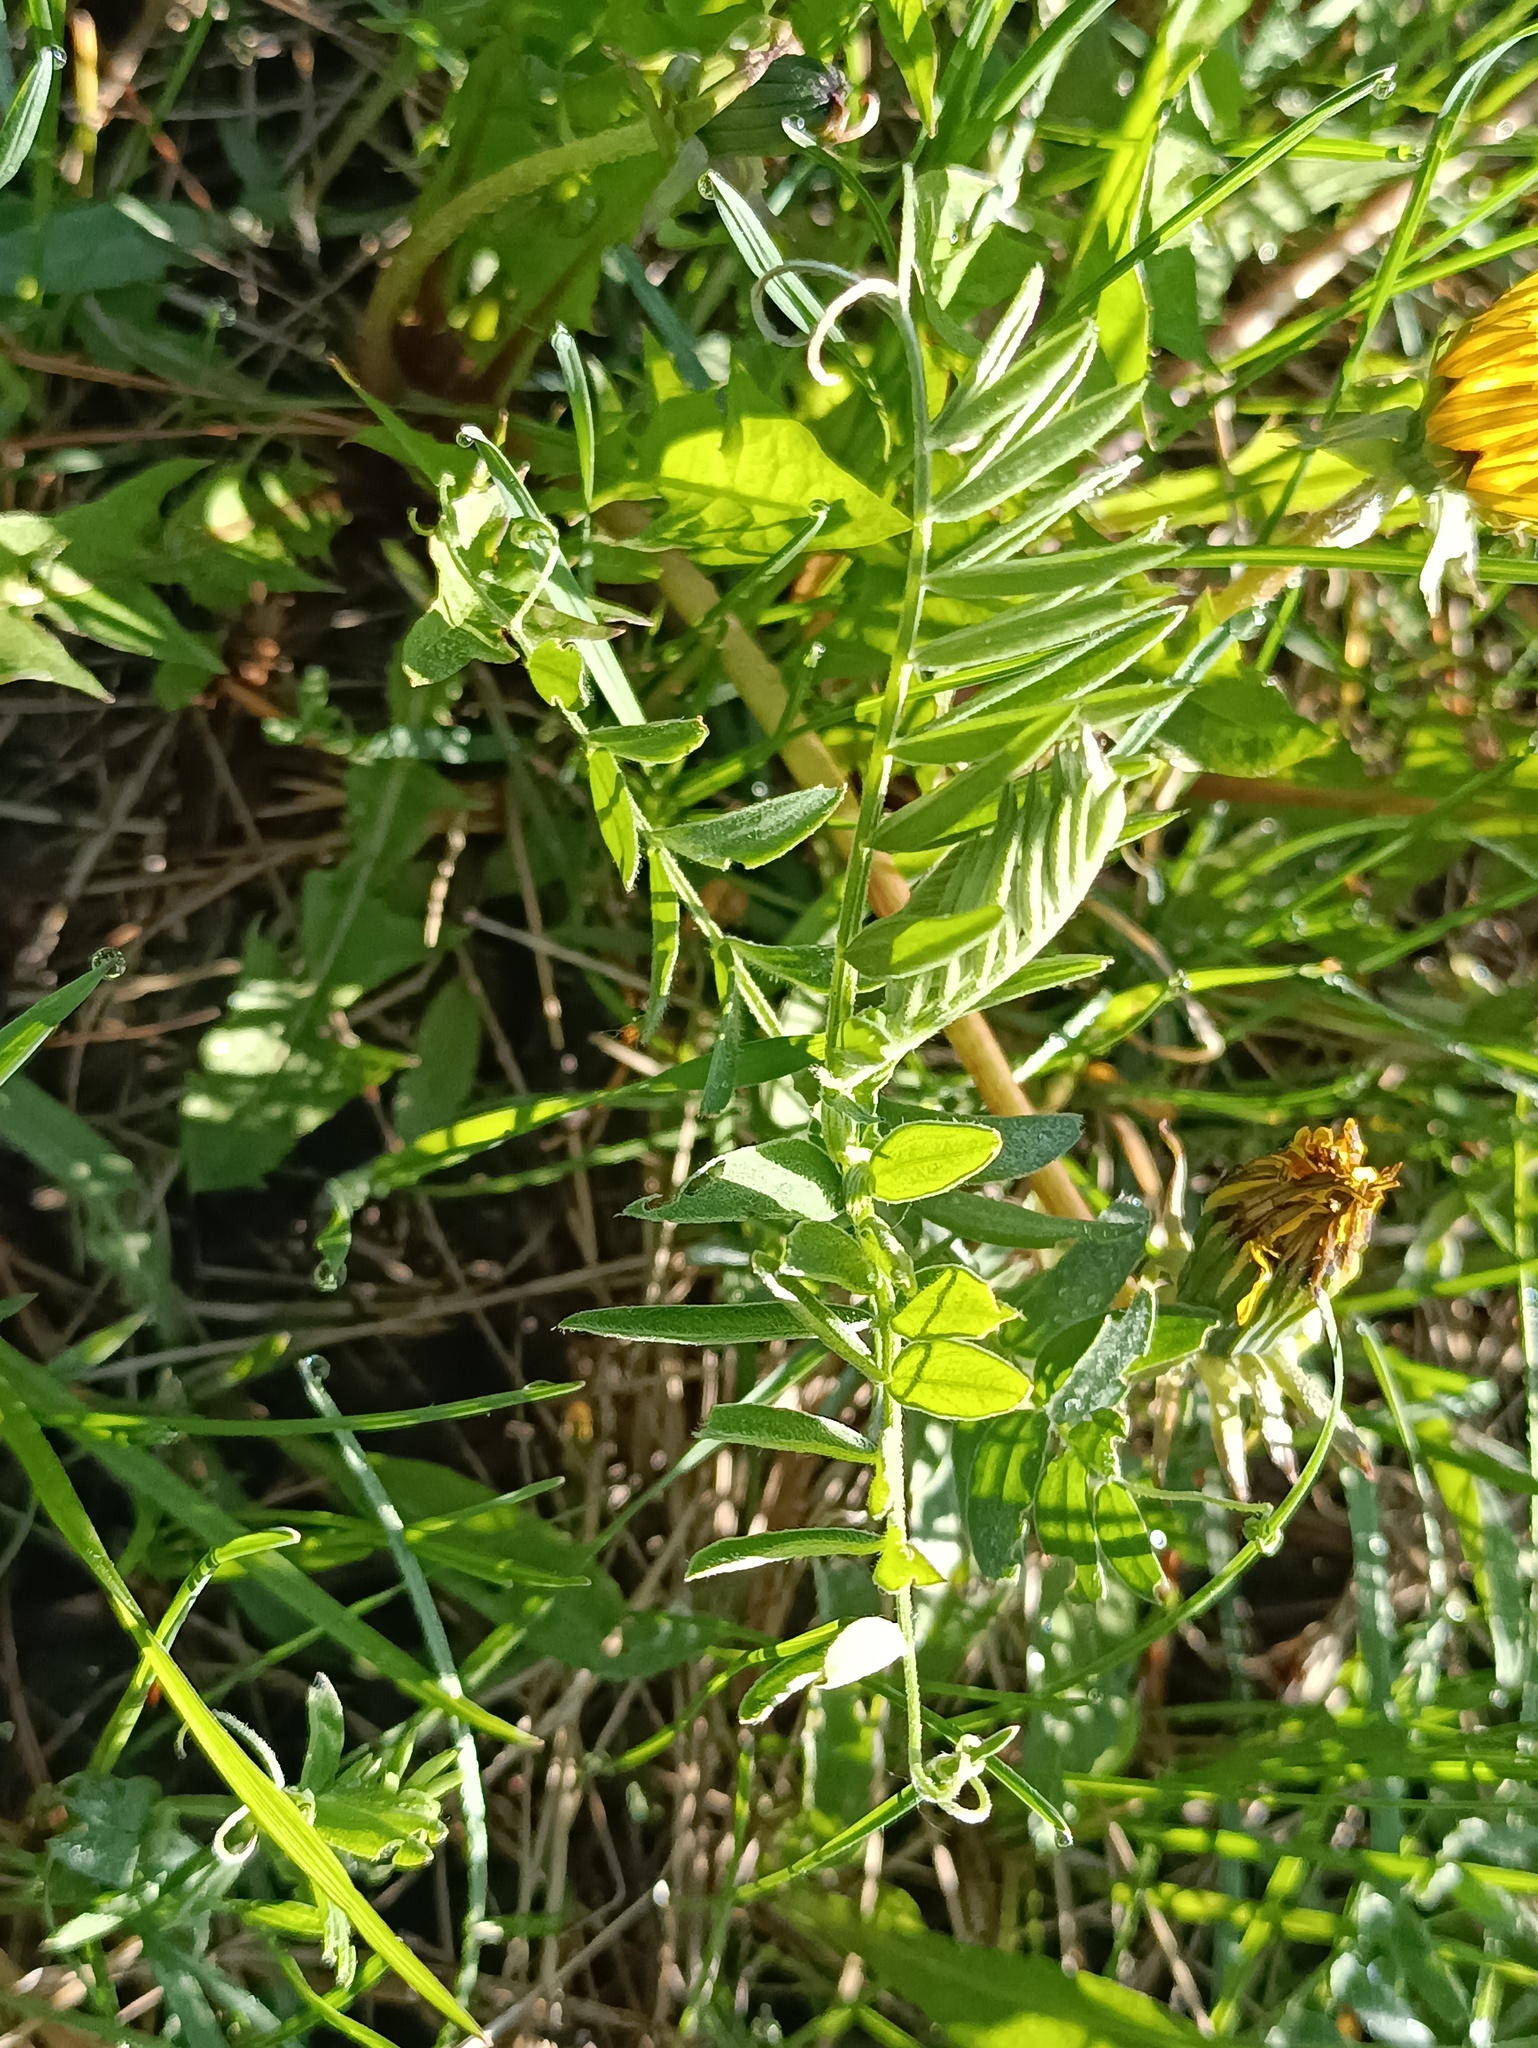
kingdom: Plantae
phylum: Tracheophyta
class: Magnoliopsida
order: Fabales
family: Fabaceae
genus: Vicia
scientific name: Vicia cracca
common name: Bird vetch
